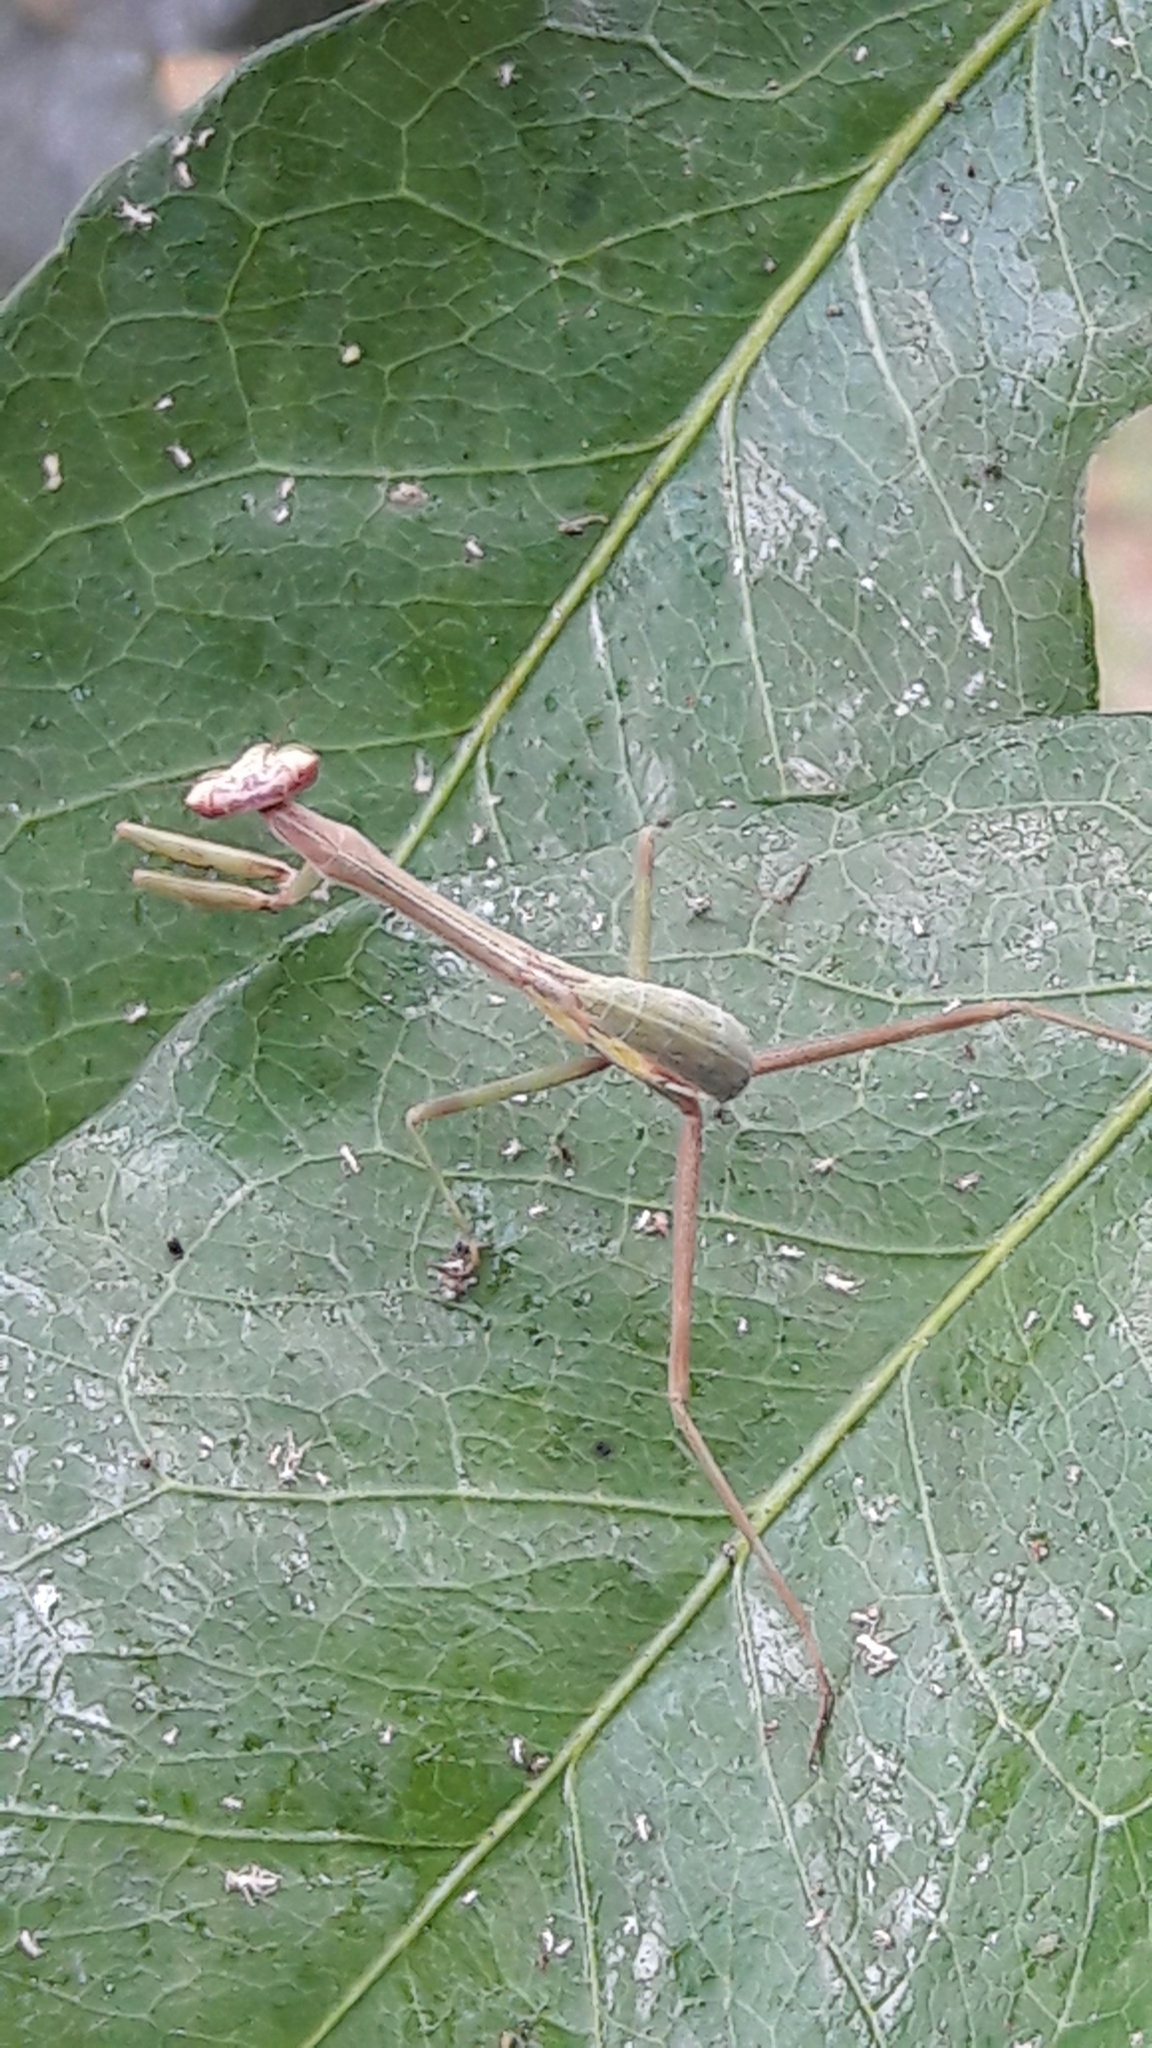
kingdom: Animalia
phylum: Arthropoda
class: Insecta
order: Mantodea
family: Mantidae
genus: Oxyopsis
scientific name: Oxyopsis
